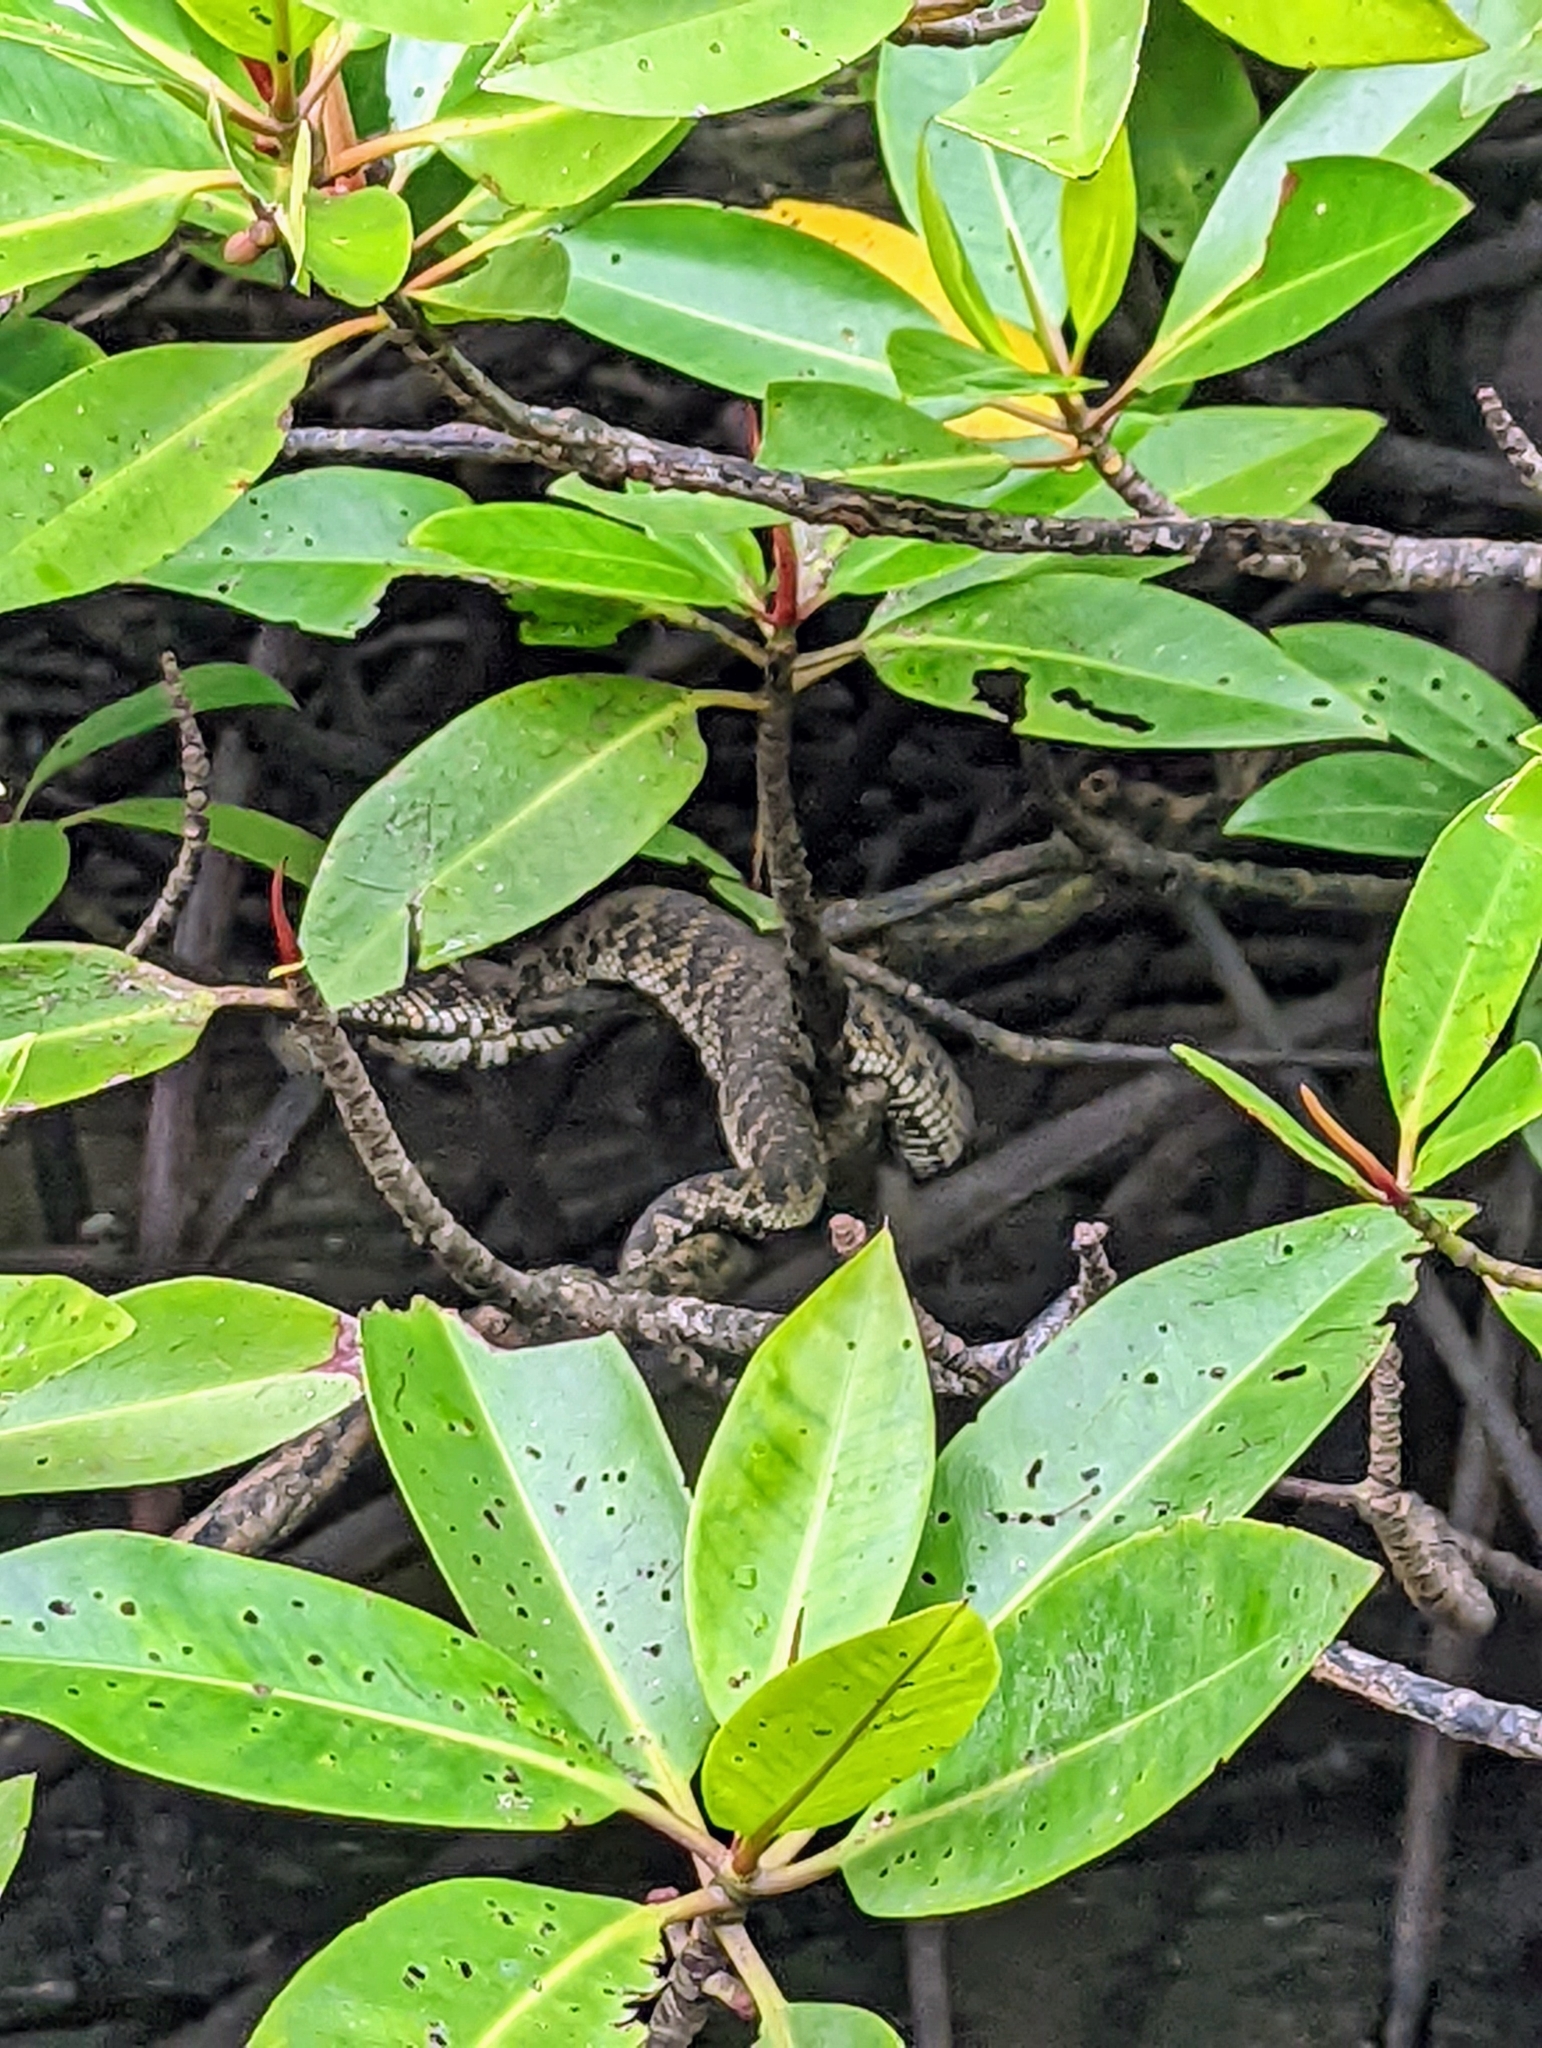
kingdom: Animalia
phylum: Chordata
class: Squamata
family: Viperidae
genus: Trimeresurus
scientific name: Trimeresurus purpureomaculatus
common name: Shore pit viper
